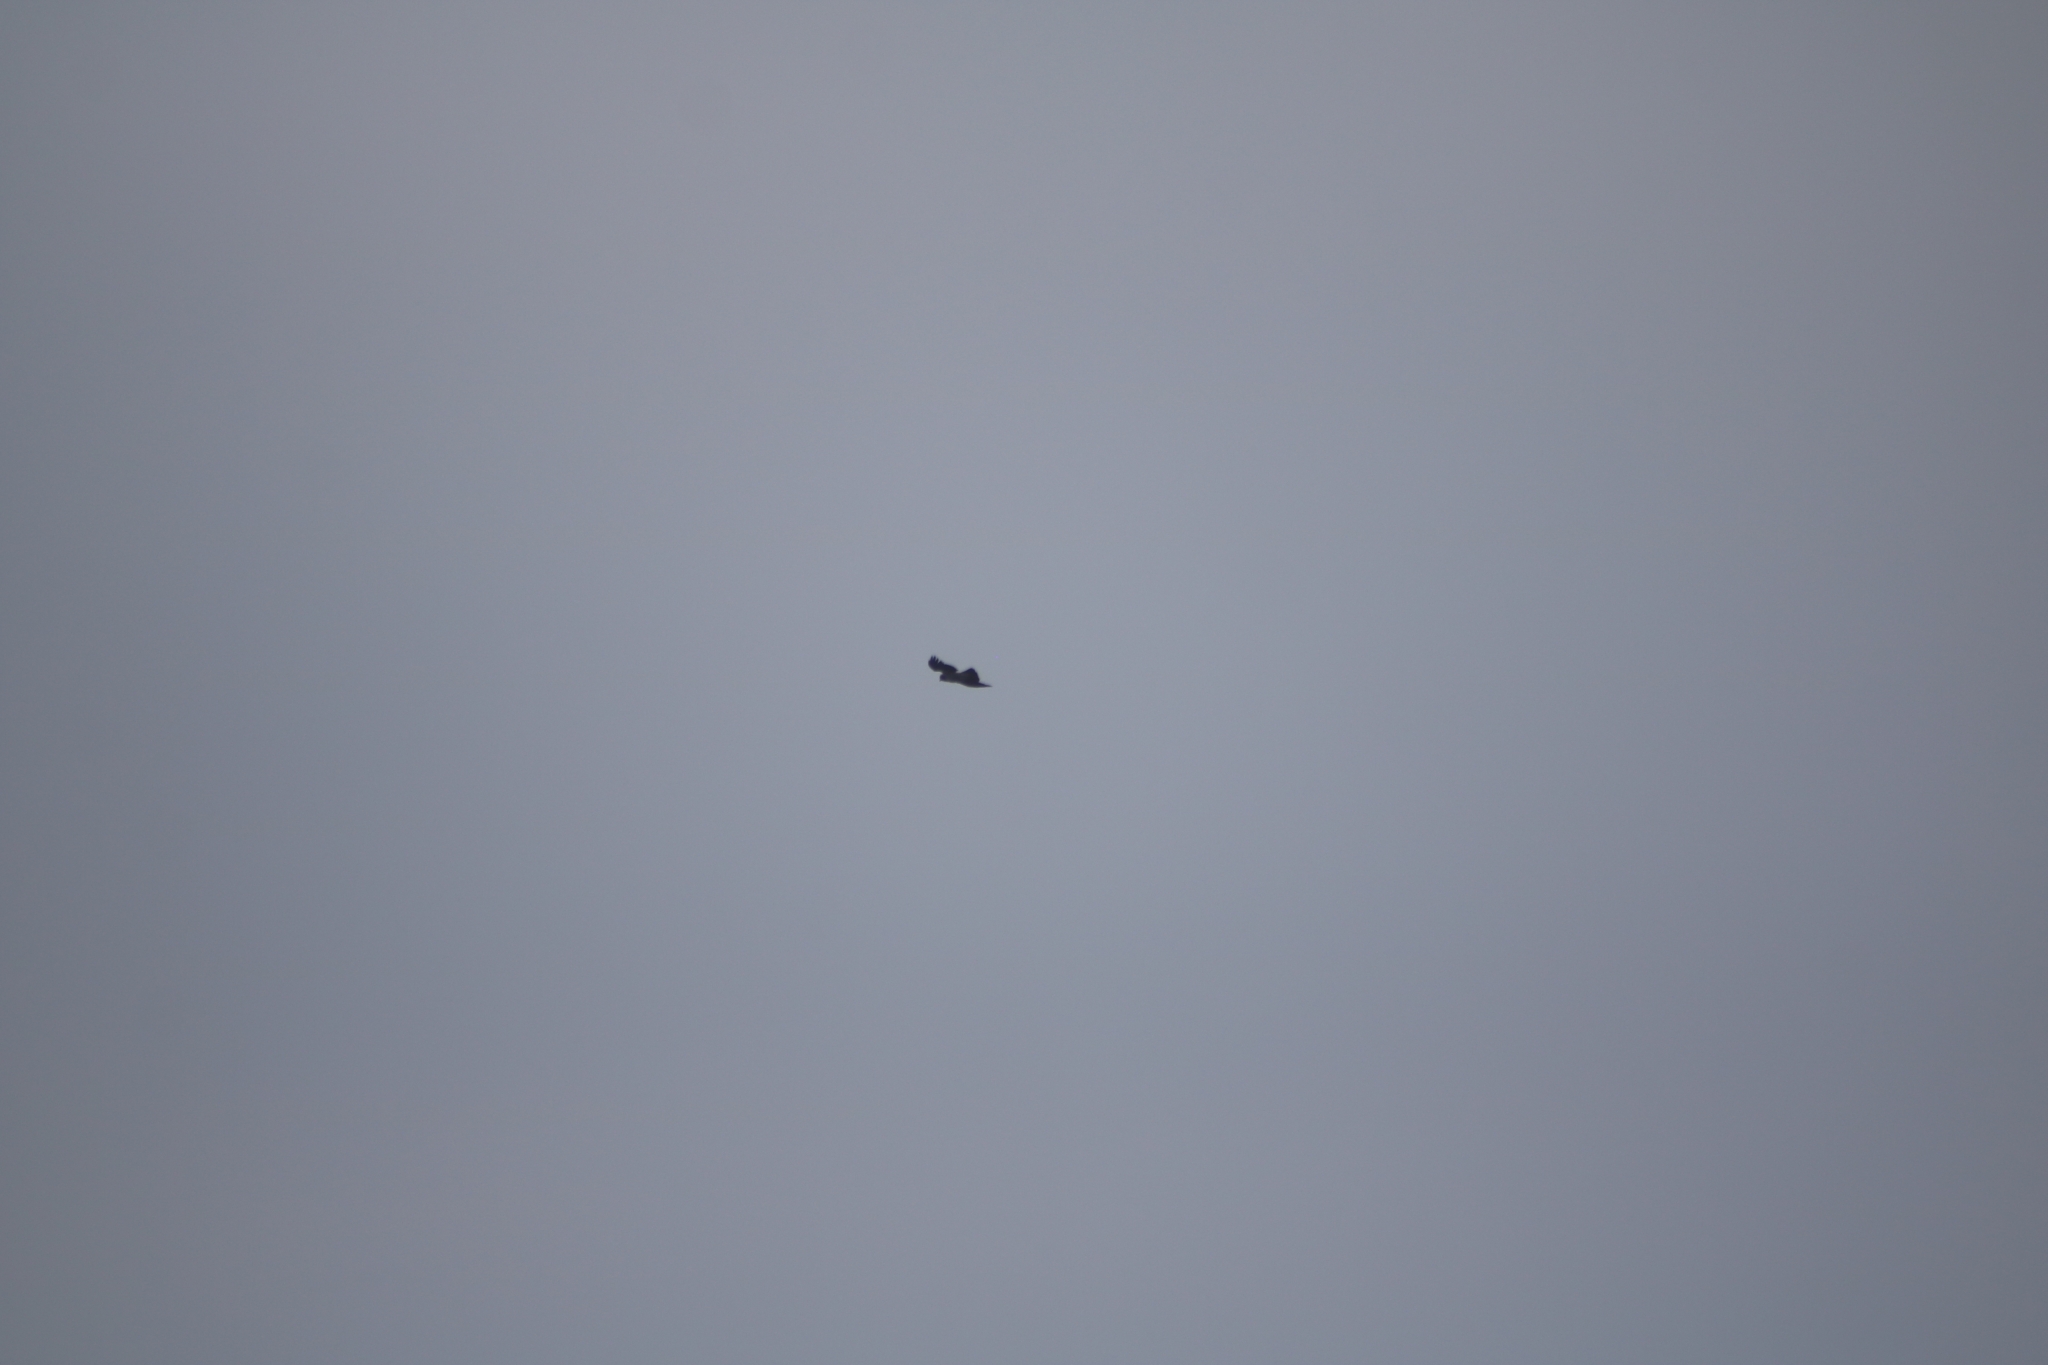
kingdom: Animalia
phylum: Chordata
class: Aves
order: Passeriformes
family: Corvidae
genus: Corvus
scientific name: Corvus cornix
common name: Hooded crow
